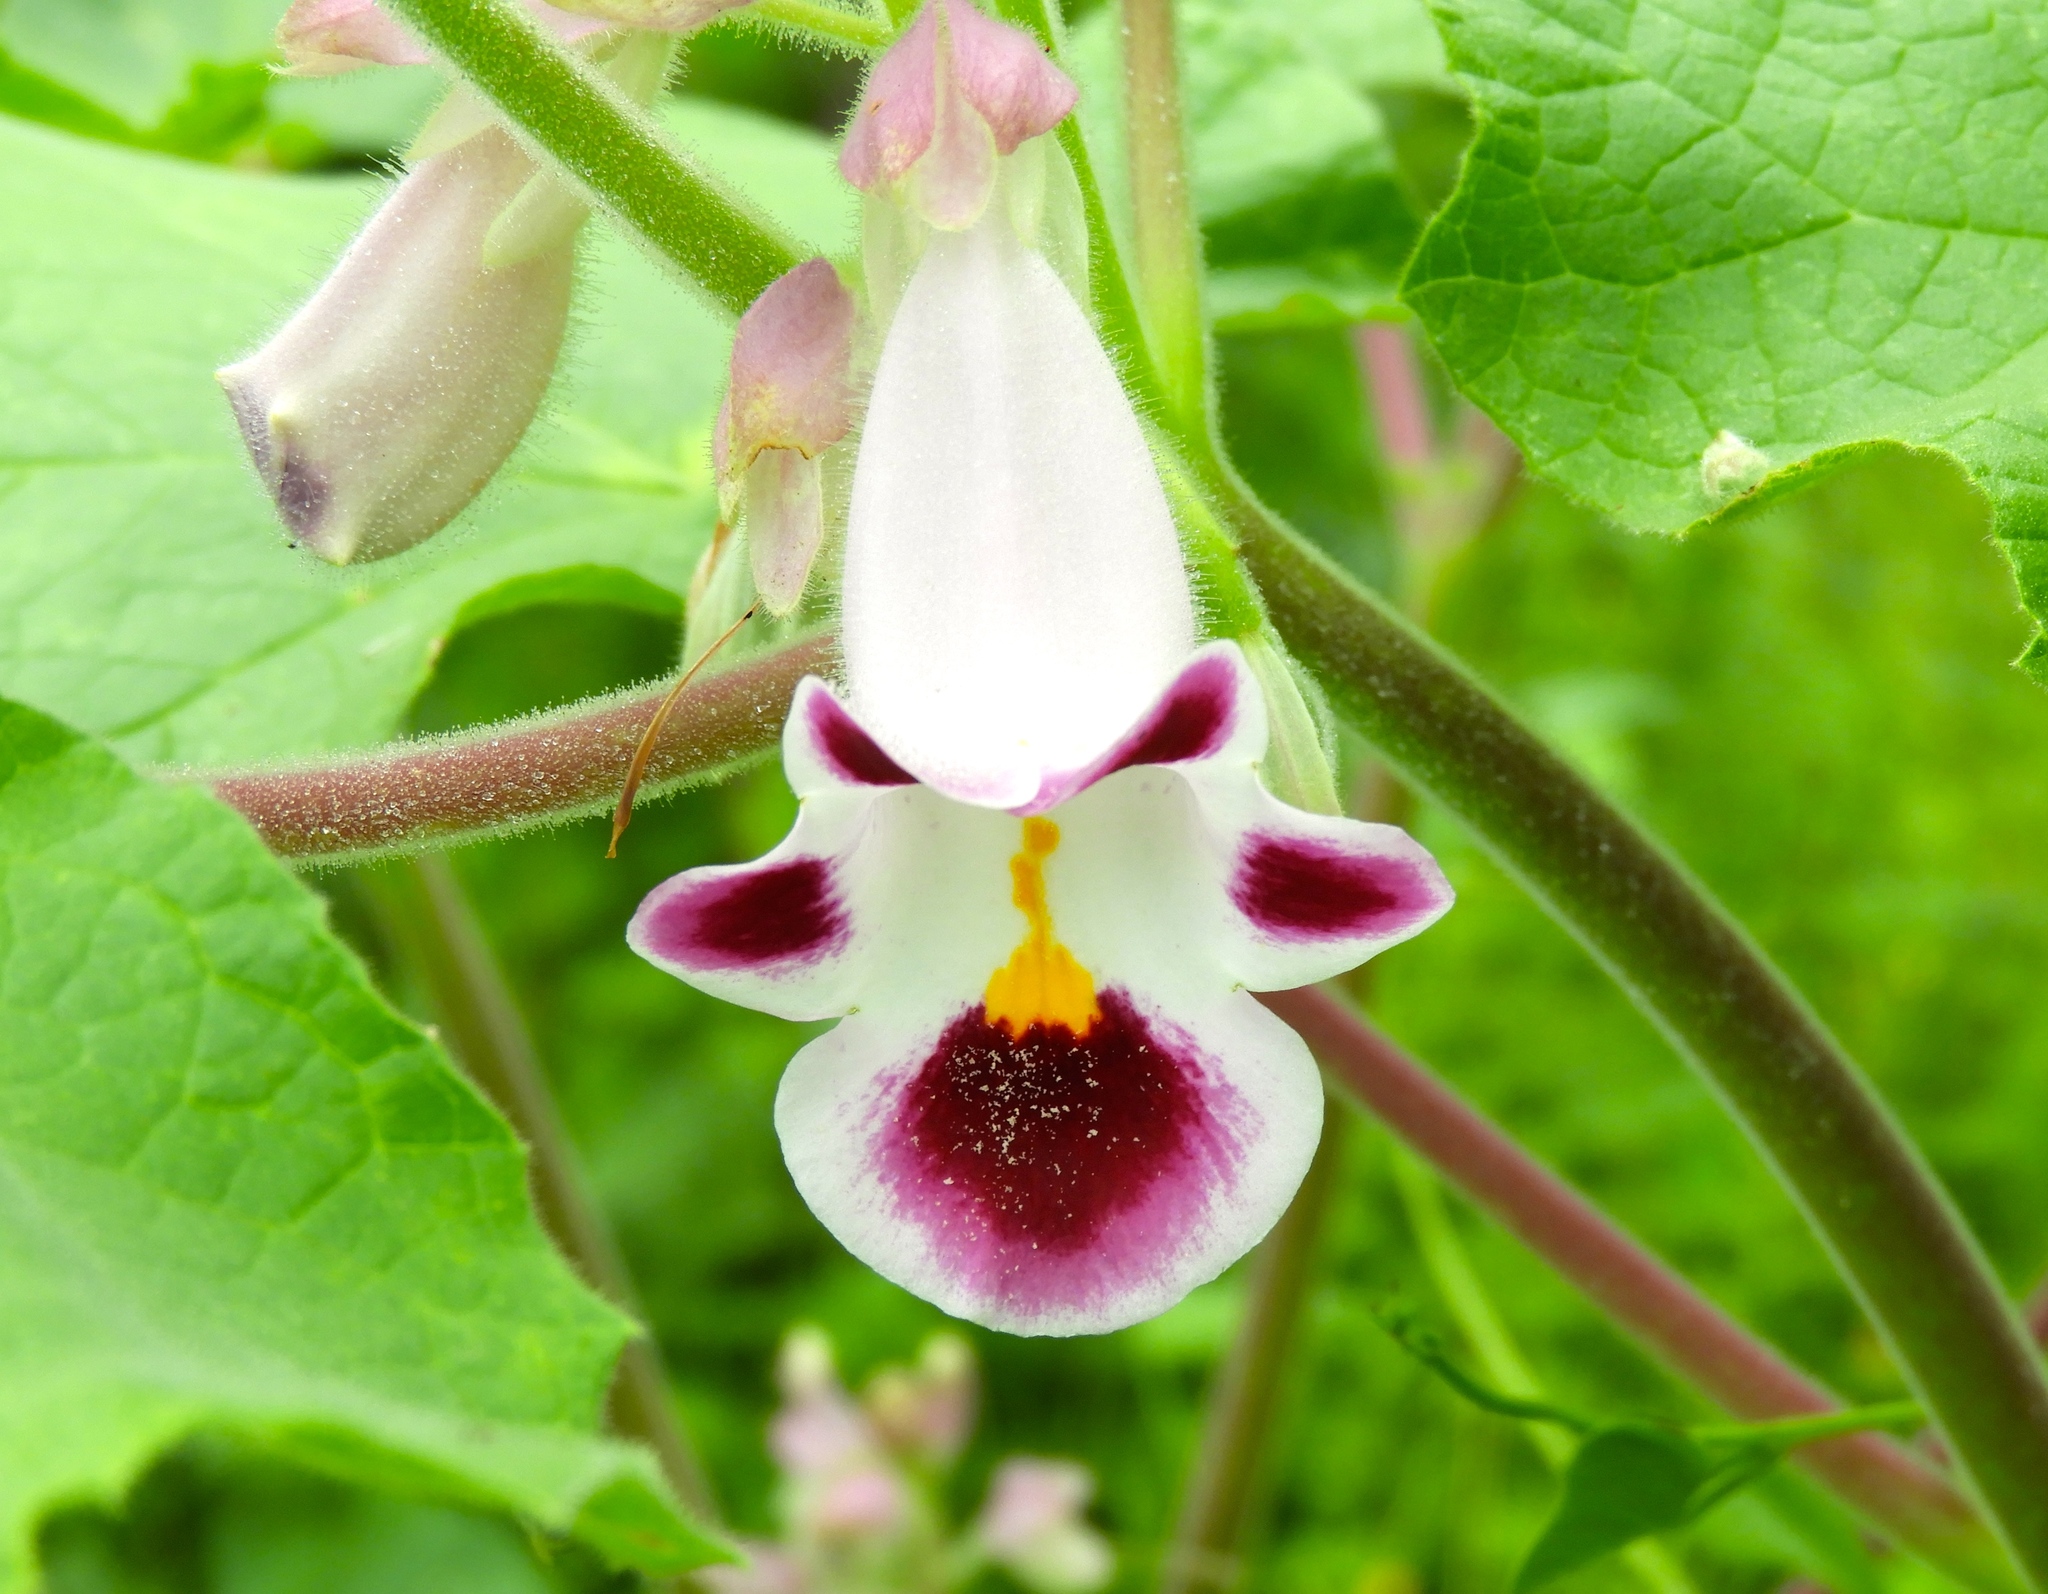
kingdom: Plantae
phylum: Tracheophyta
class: Magnoliopsida
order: Lamiales
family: Martyniaceae
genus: Martynia
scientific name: Martynia annua
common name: Tiger's-claw
